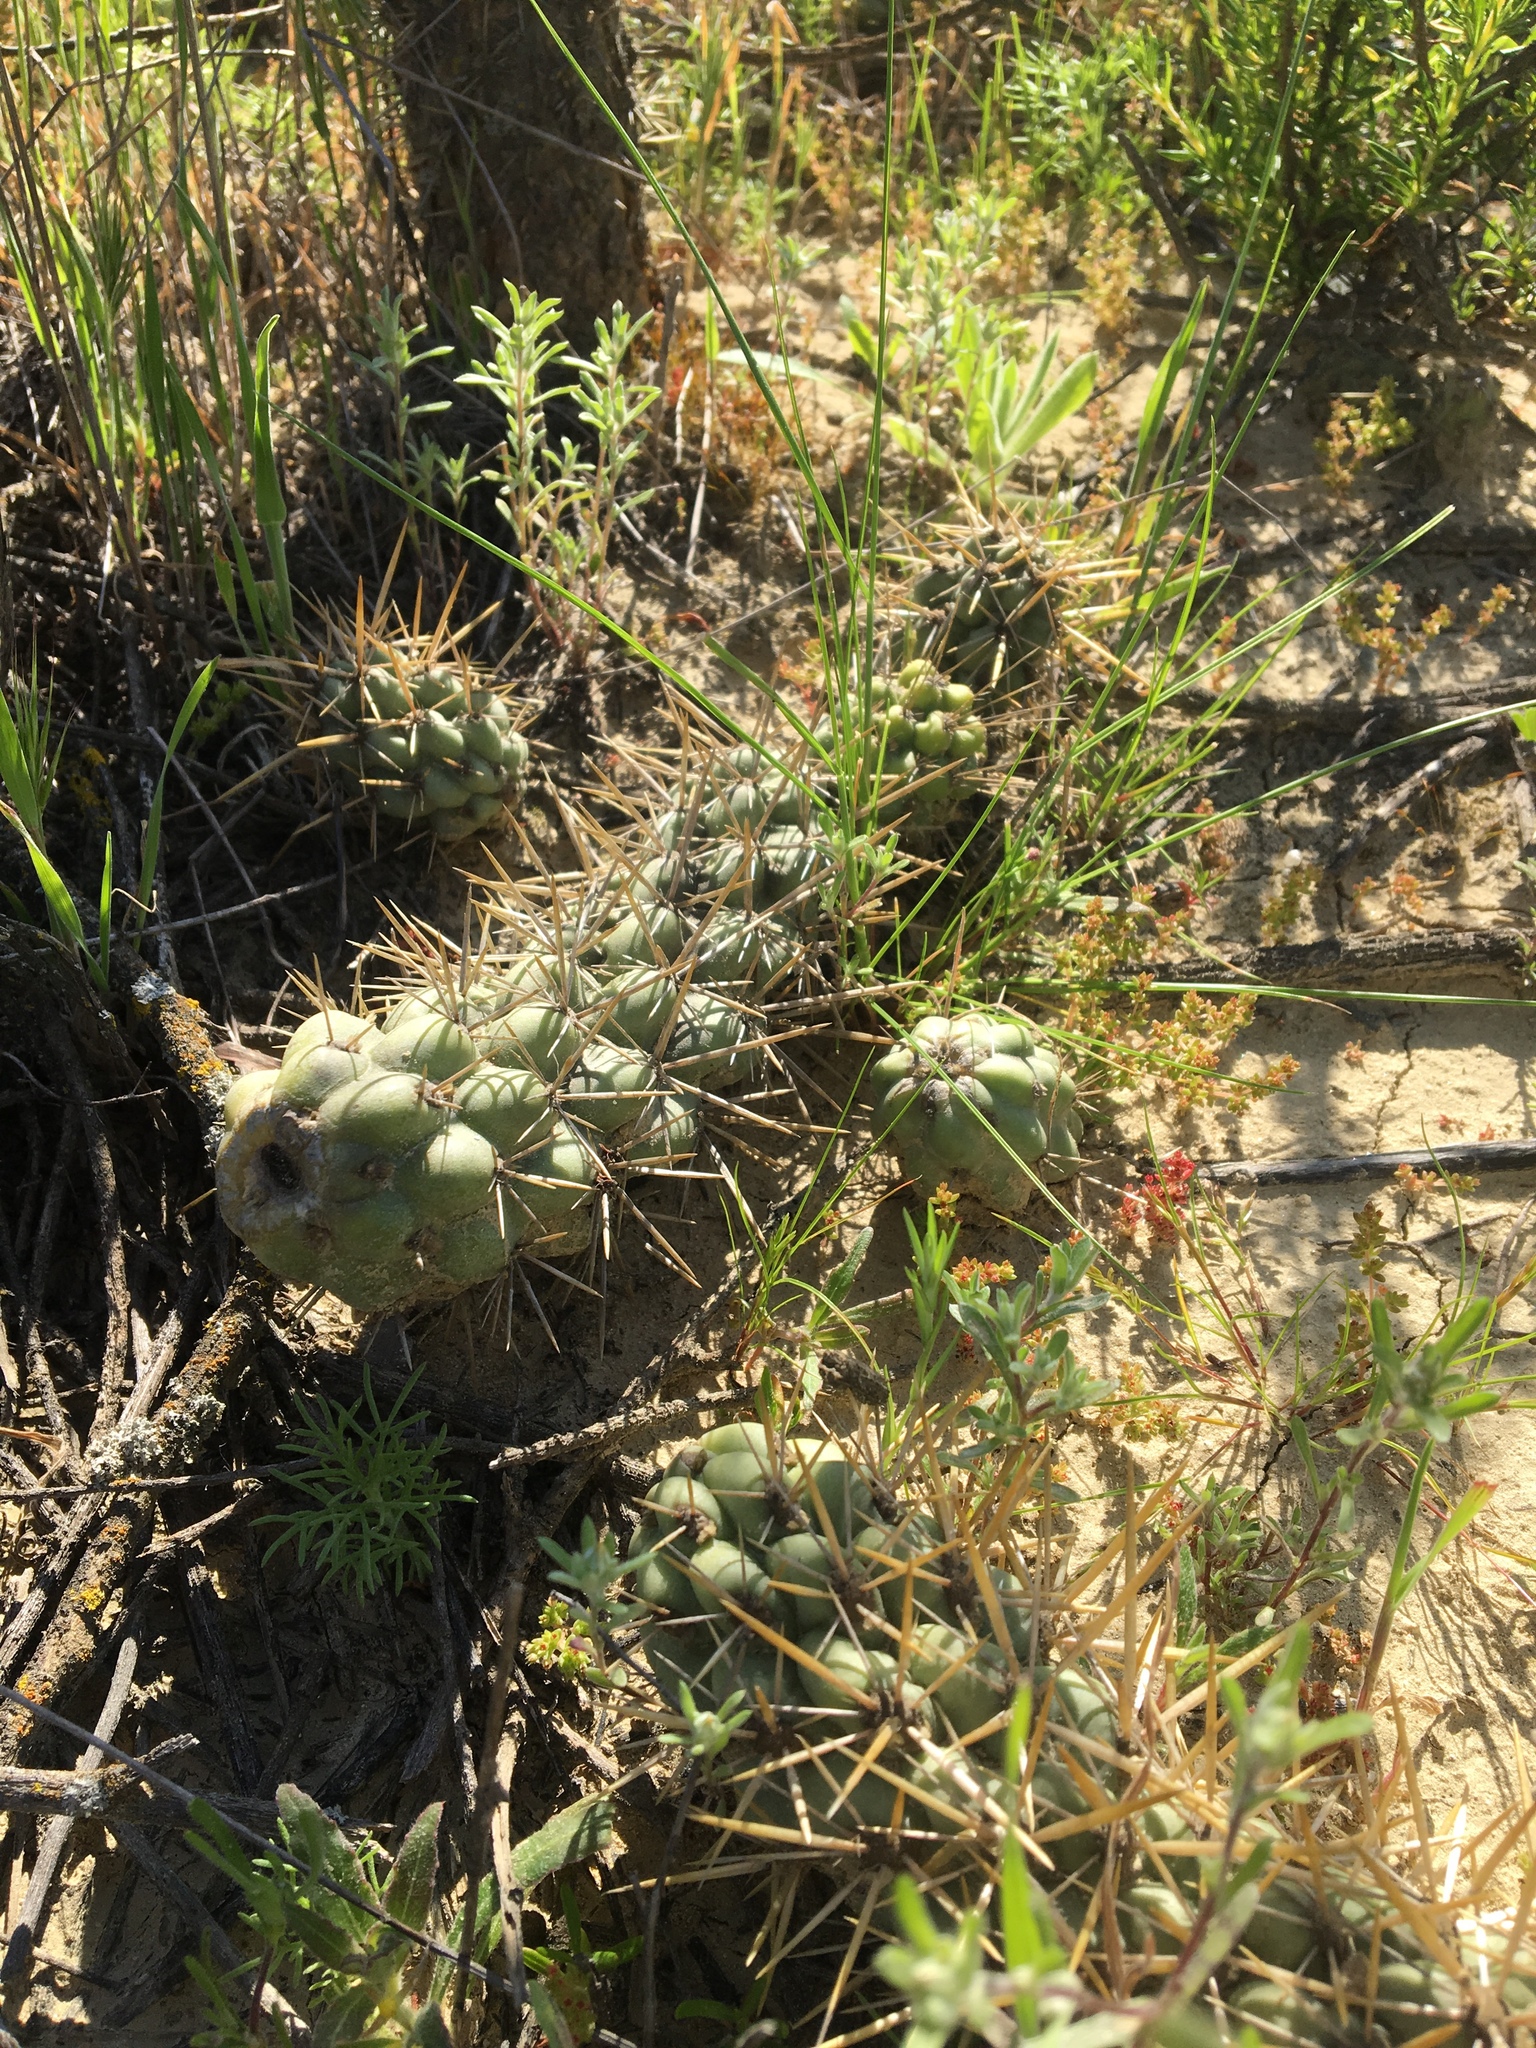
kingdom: Plantae
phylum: Tracheophyta
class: Magnoliopsida
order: Caryophyllales
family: Cactaceae
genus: Cylindropuntia
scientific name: Cylindropuntia prolifera
